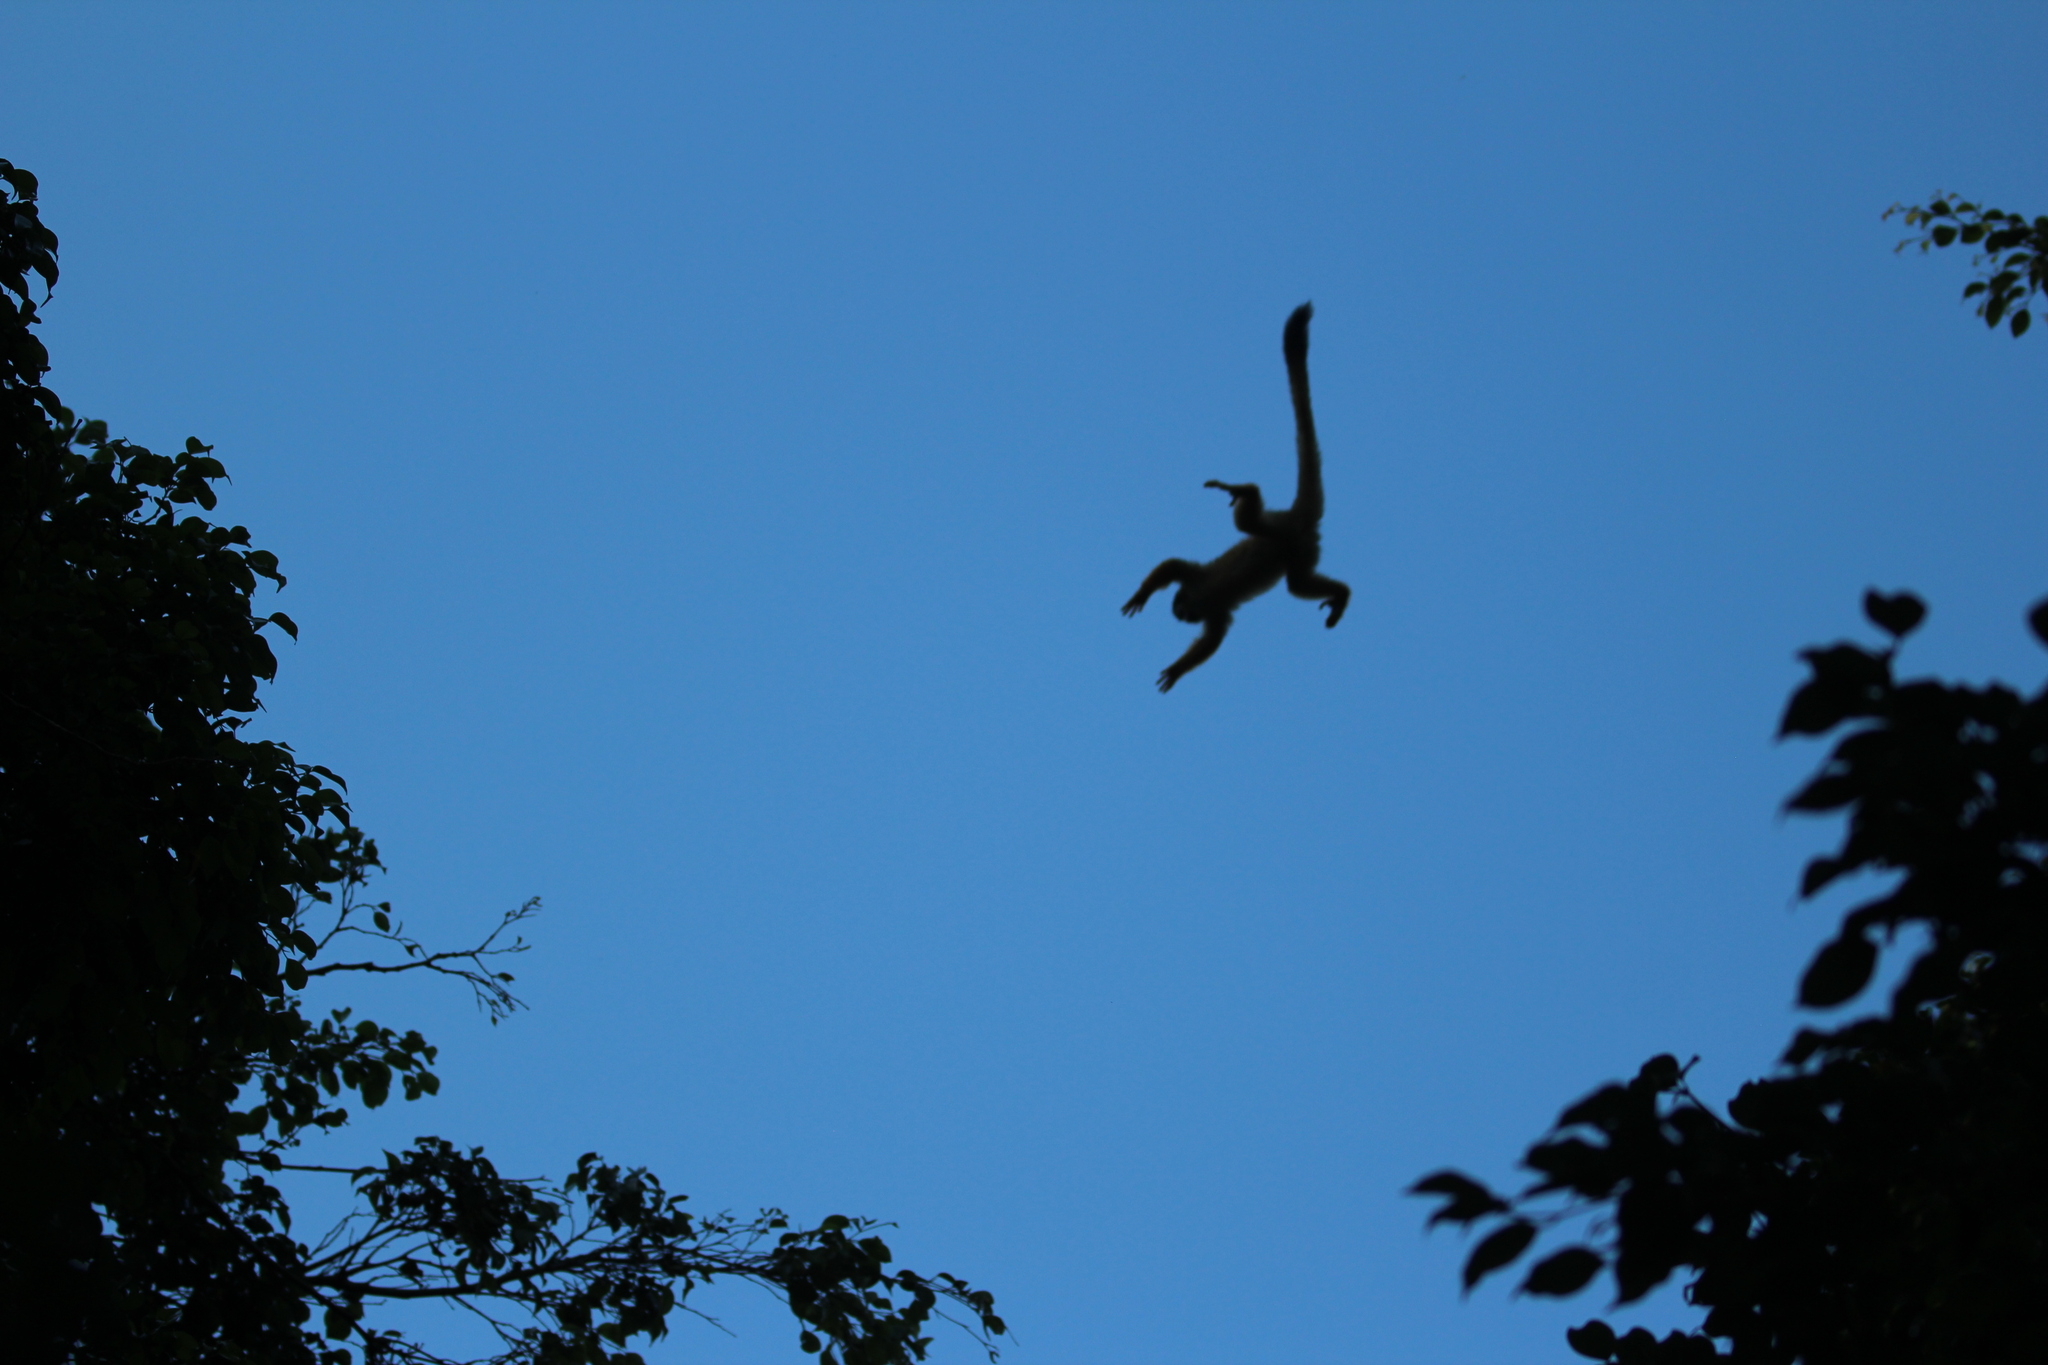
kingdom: Animalia
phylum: Chordata
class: Mammalia
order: Primates
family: Cebidae
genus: Saimiri
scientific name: Saimiri oerstedii
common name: Central american squirrel monkey
